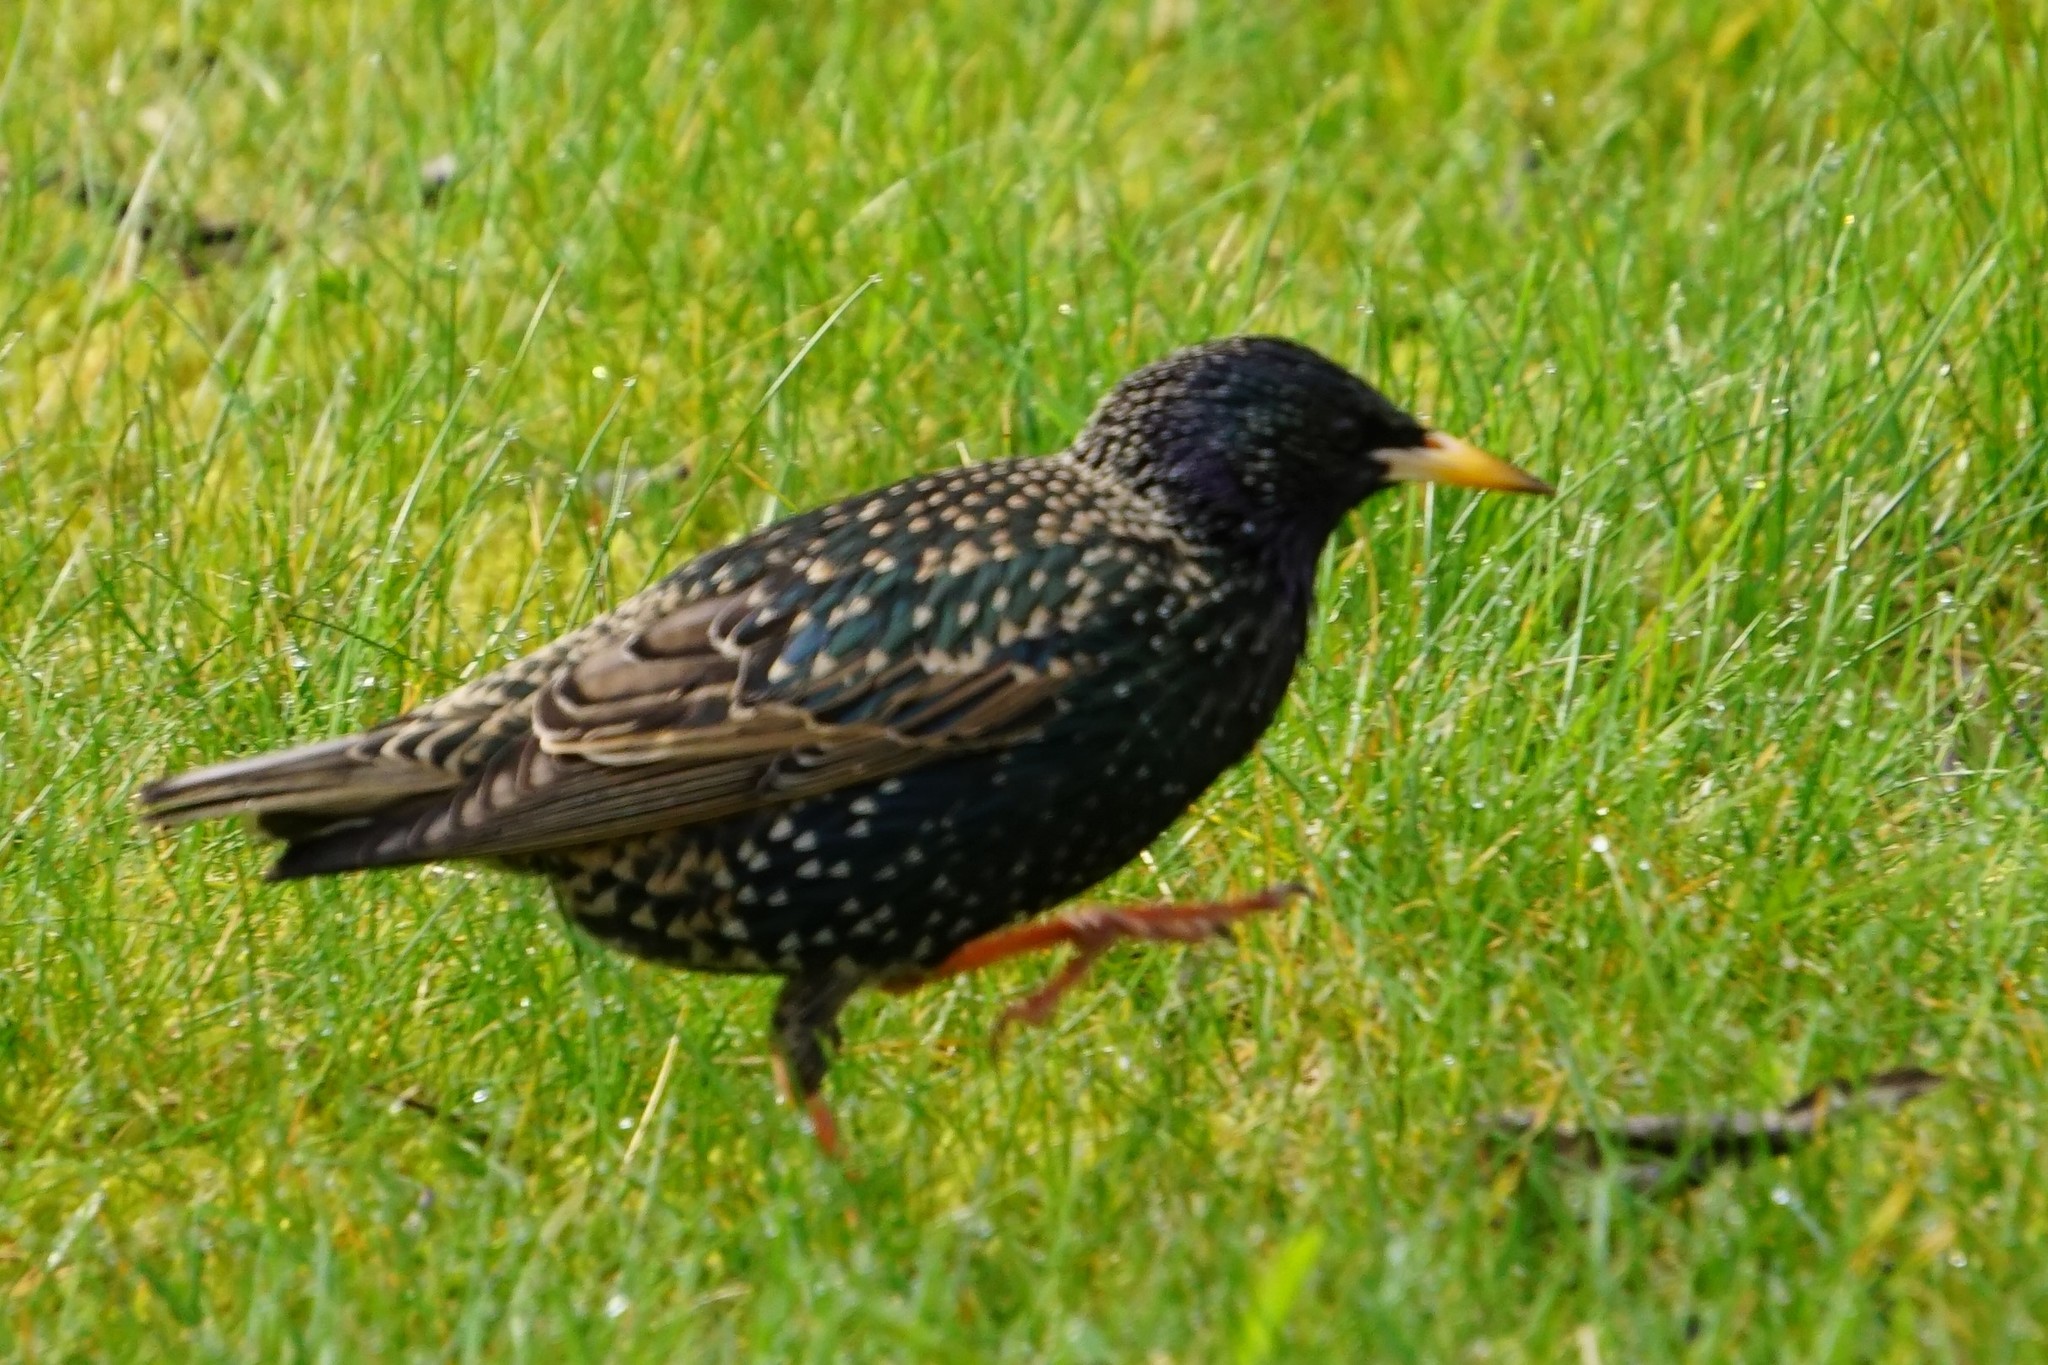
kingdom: Animalia
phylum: Chordata
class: Aves
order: Passeriformes
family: Sturnidae
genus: Sturnus
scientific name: Sturnus vulgaris
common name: Common starling
